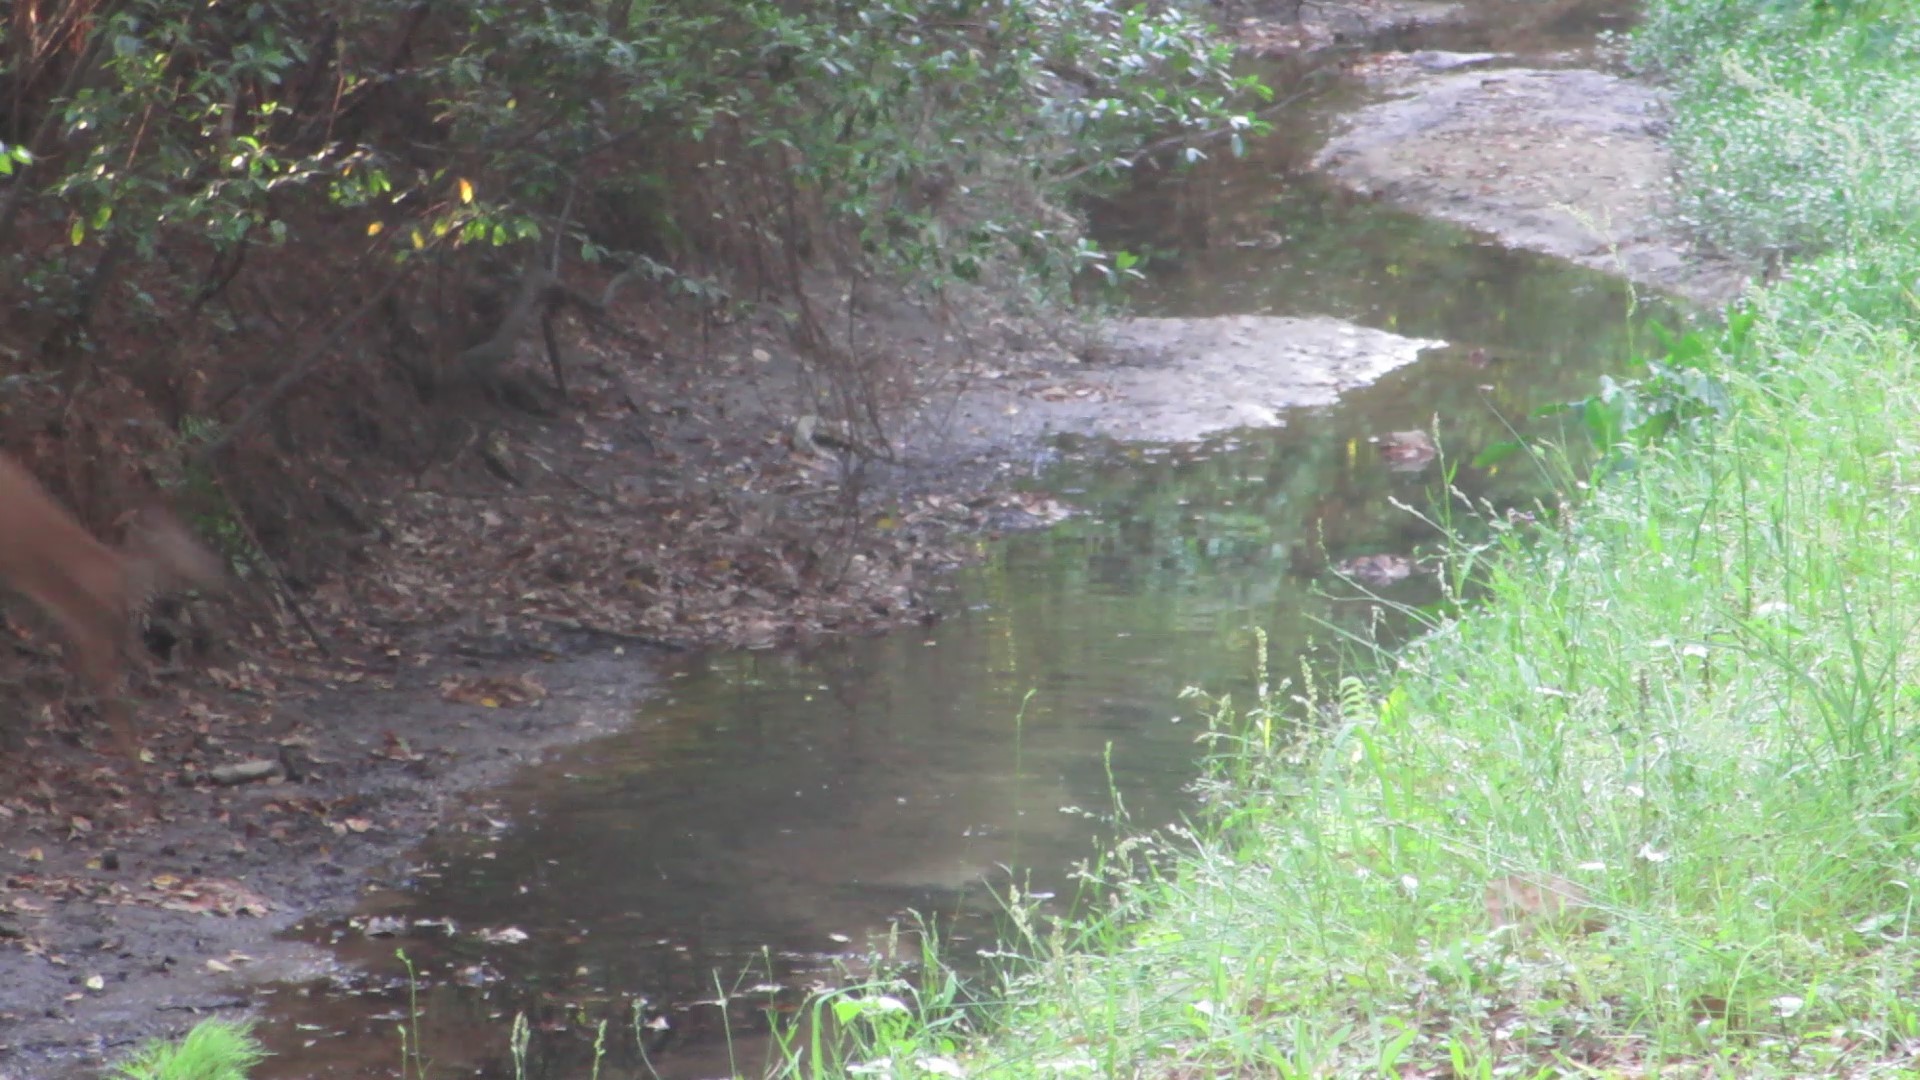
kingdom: Animalia
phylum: Chordata
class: Mammalia
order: Artiodactyla
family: Cervidae
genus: Odocoileus
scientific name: Odocoileus virginianus
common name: White-tailed deer
